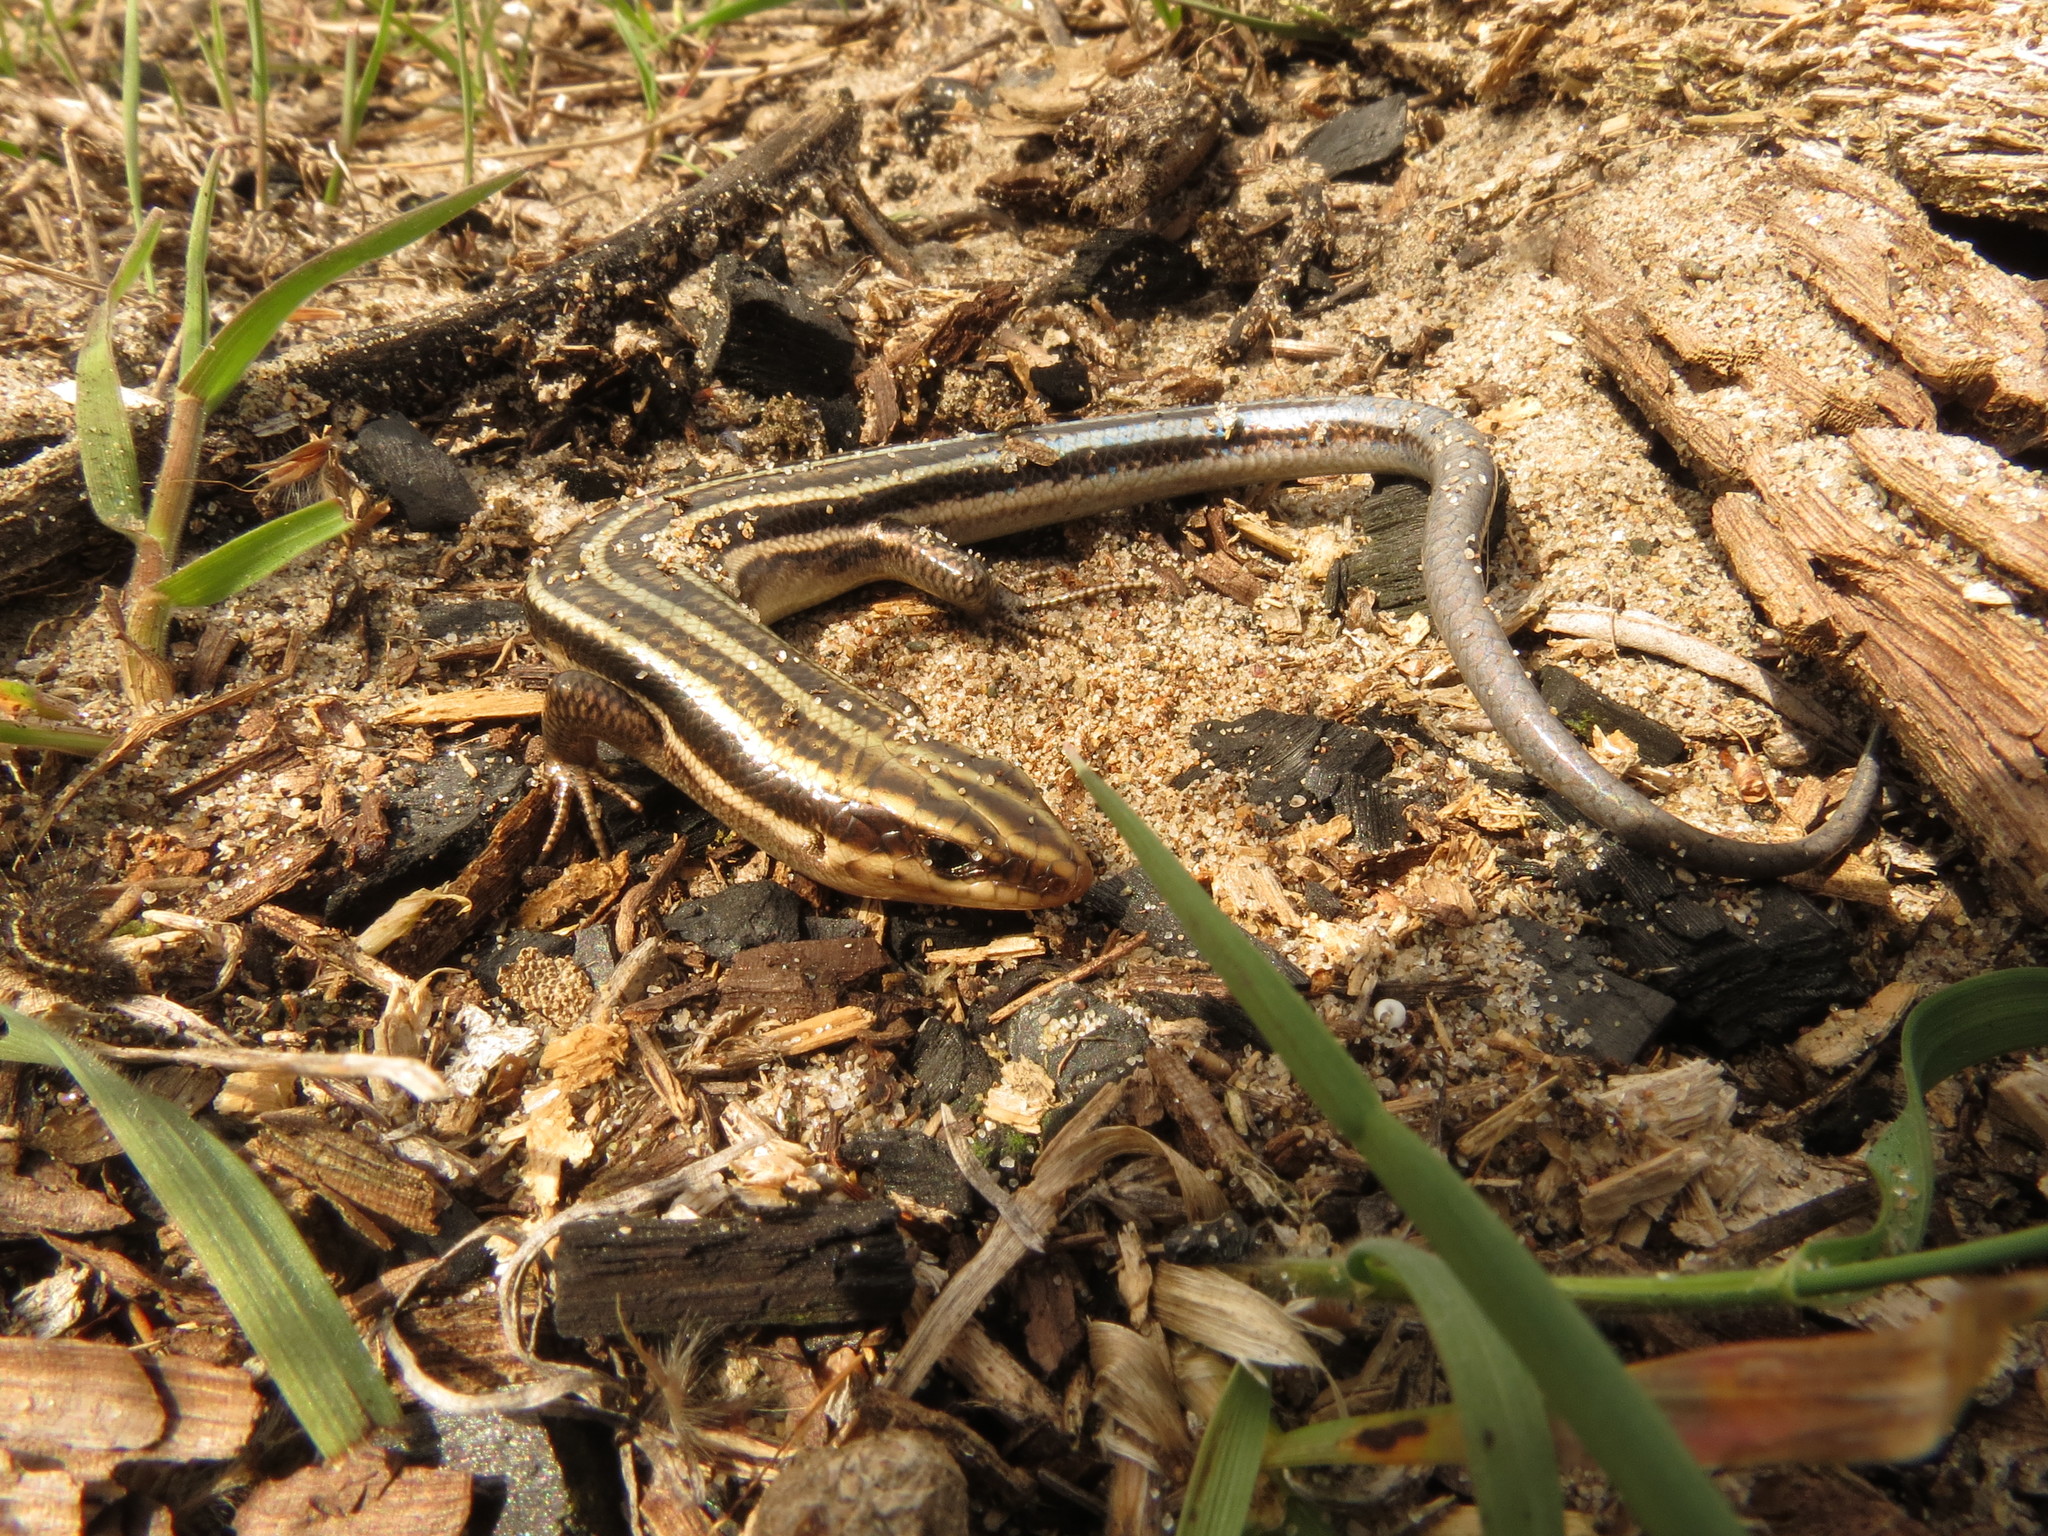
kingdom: Animalia
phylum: Chordata
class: Squamata
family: Scincidae
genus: Plestiodon
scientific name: Plestiodon fasciatus
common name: Five-lined skink
